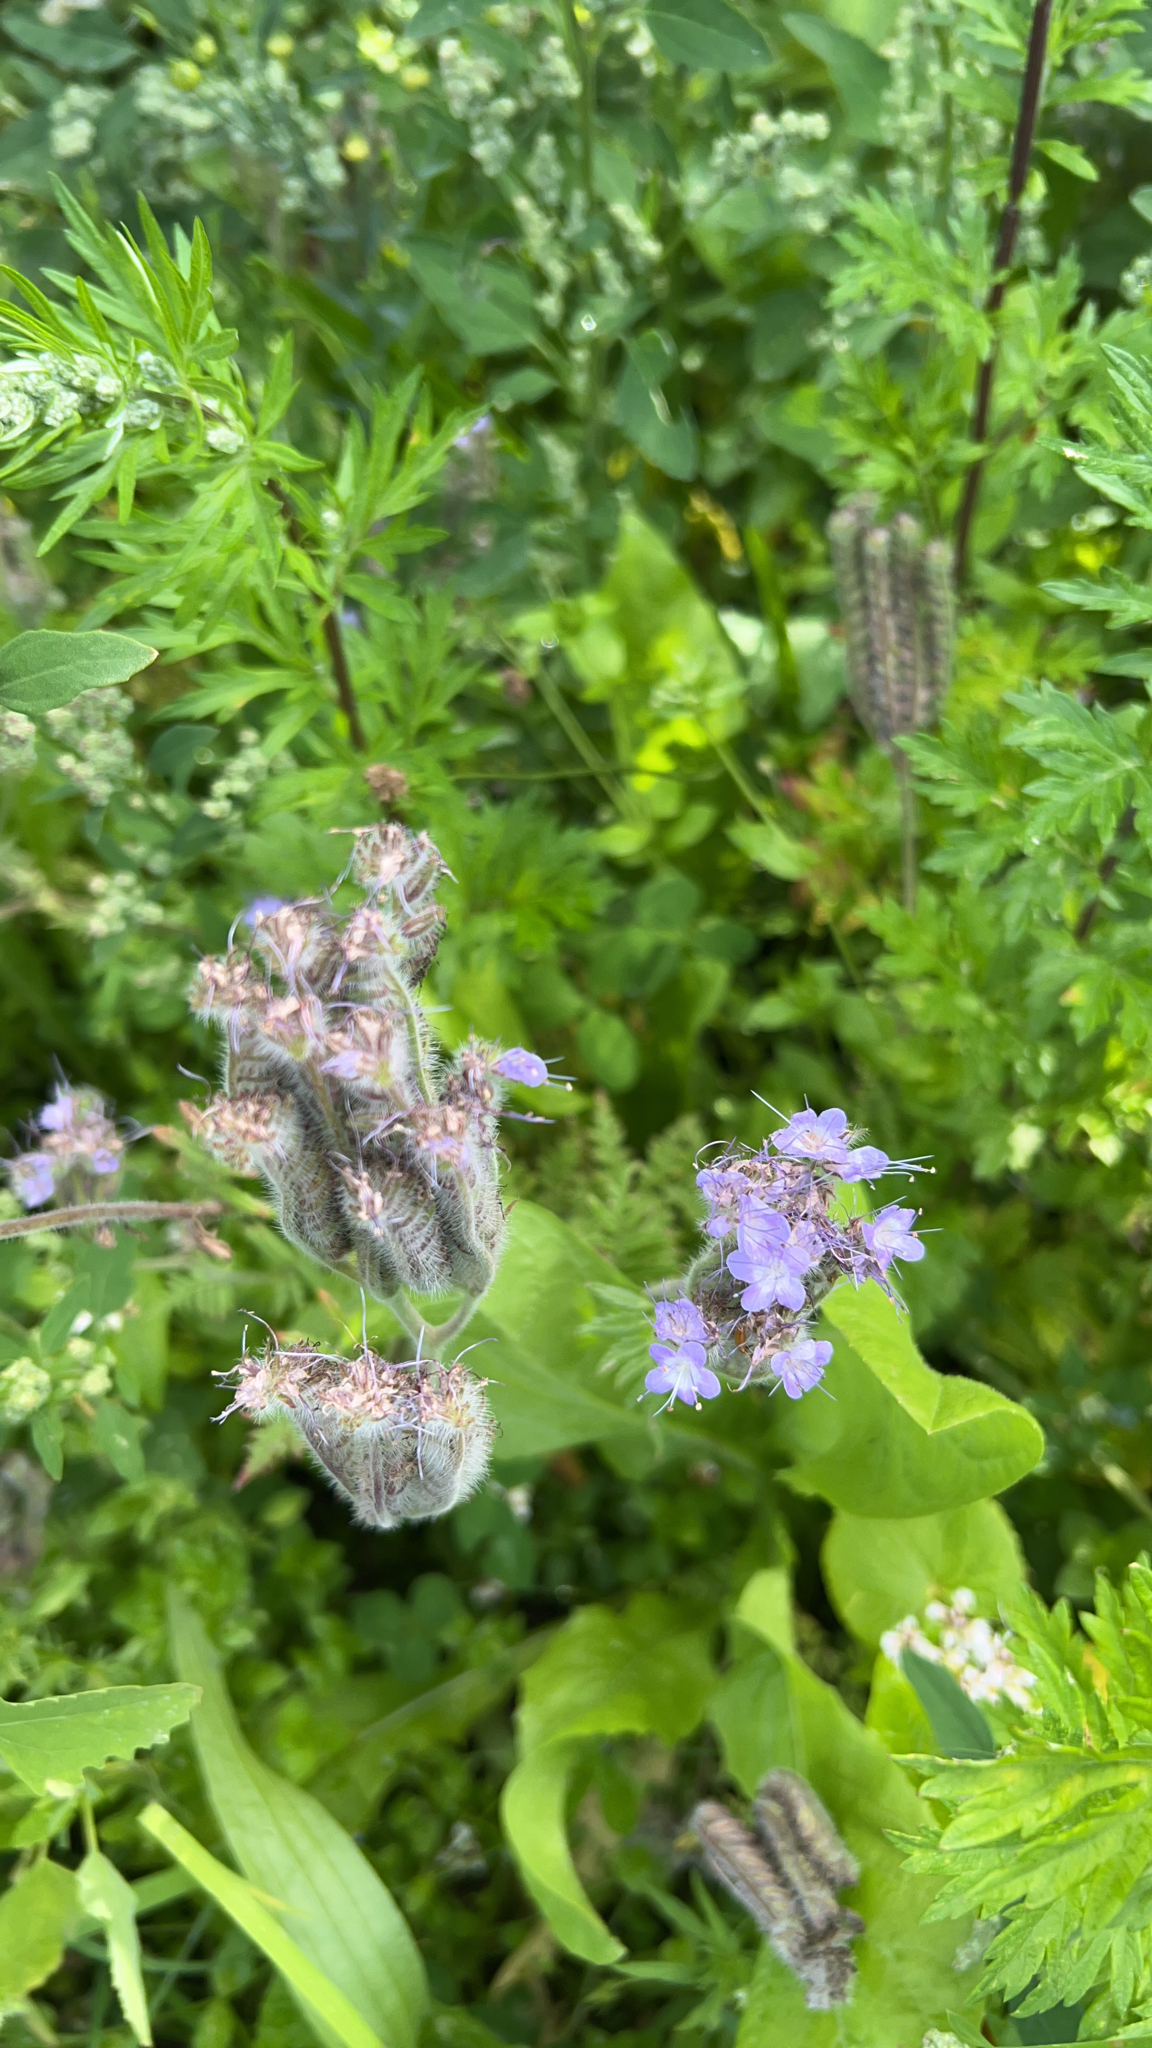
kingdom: Plantae
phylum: Tracheophyta
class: Magnoliopsida
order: Boraginales
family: Hydrophyllaceae
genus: Phacelia
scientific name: Phacelia tanacetifolia
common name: Phacelia
